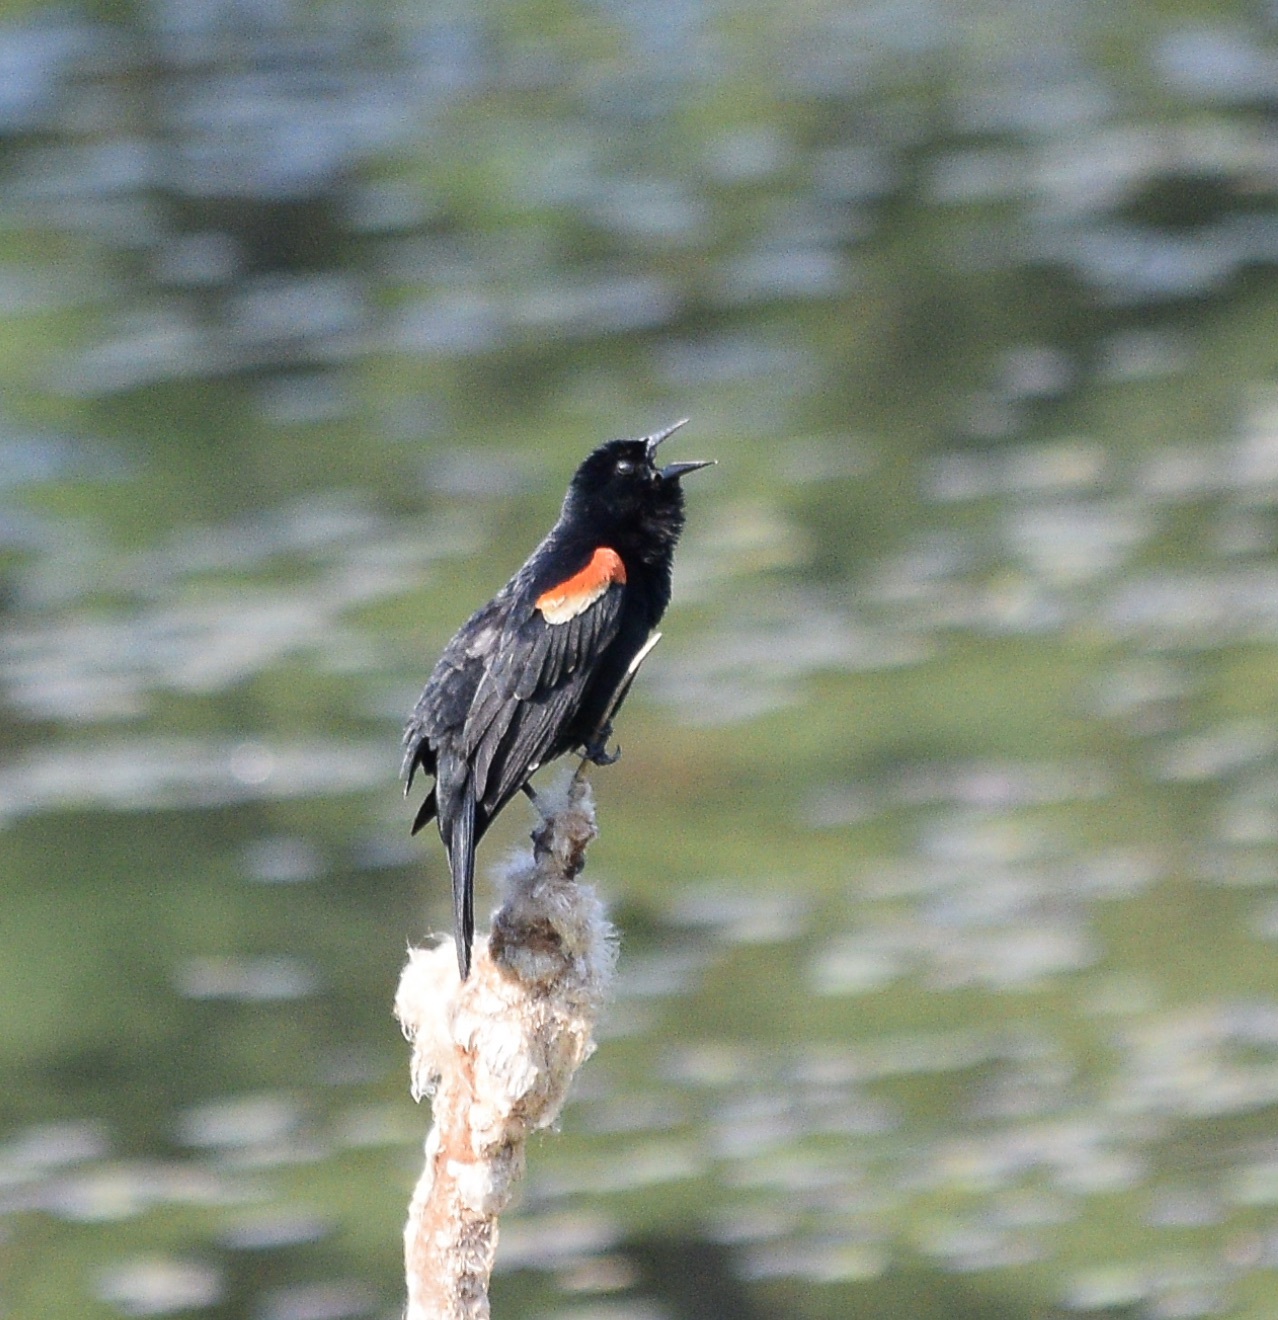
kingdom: Animalia
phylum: Chordata
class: Aves
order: Passeriformes
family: Icteridae
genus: Agelaius
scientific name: Agelaius phoeniceus
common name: Red-winged blackbird
